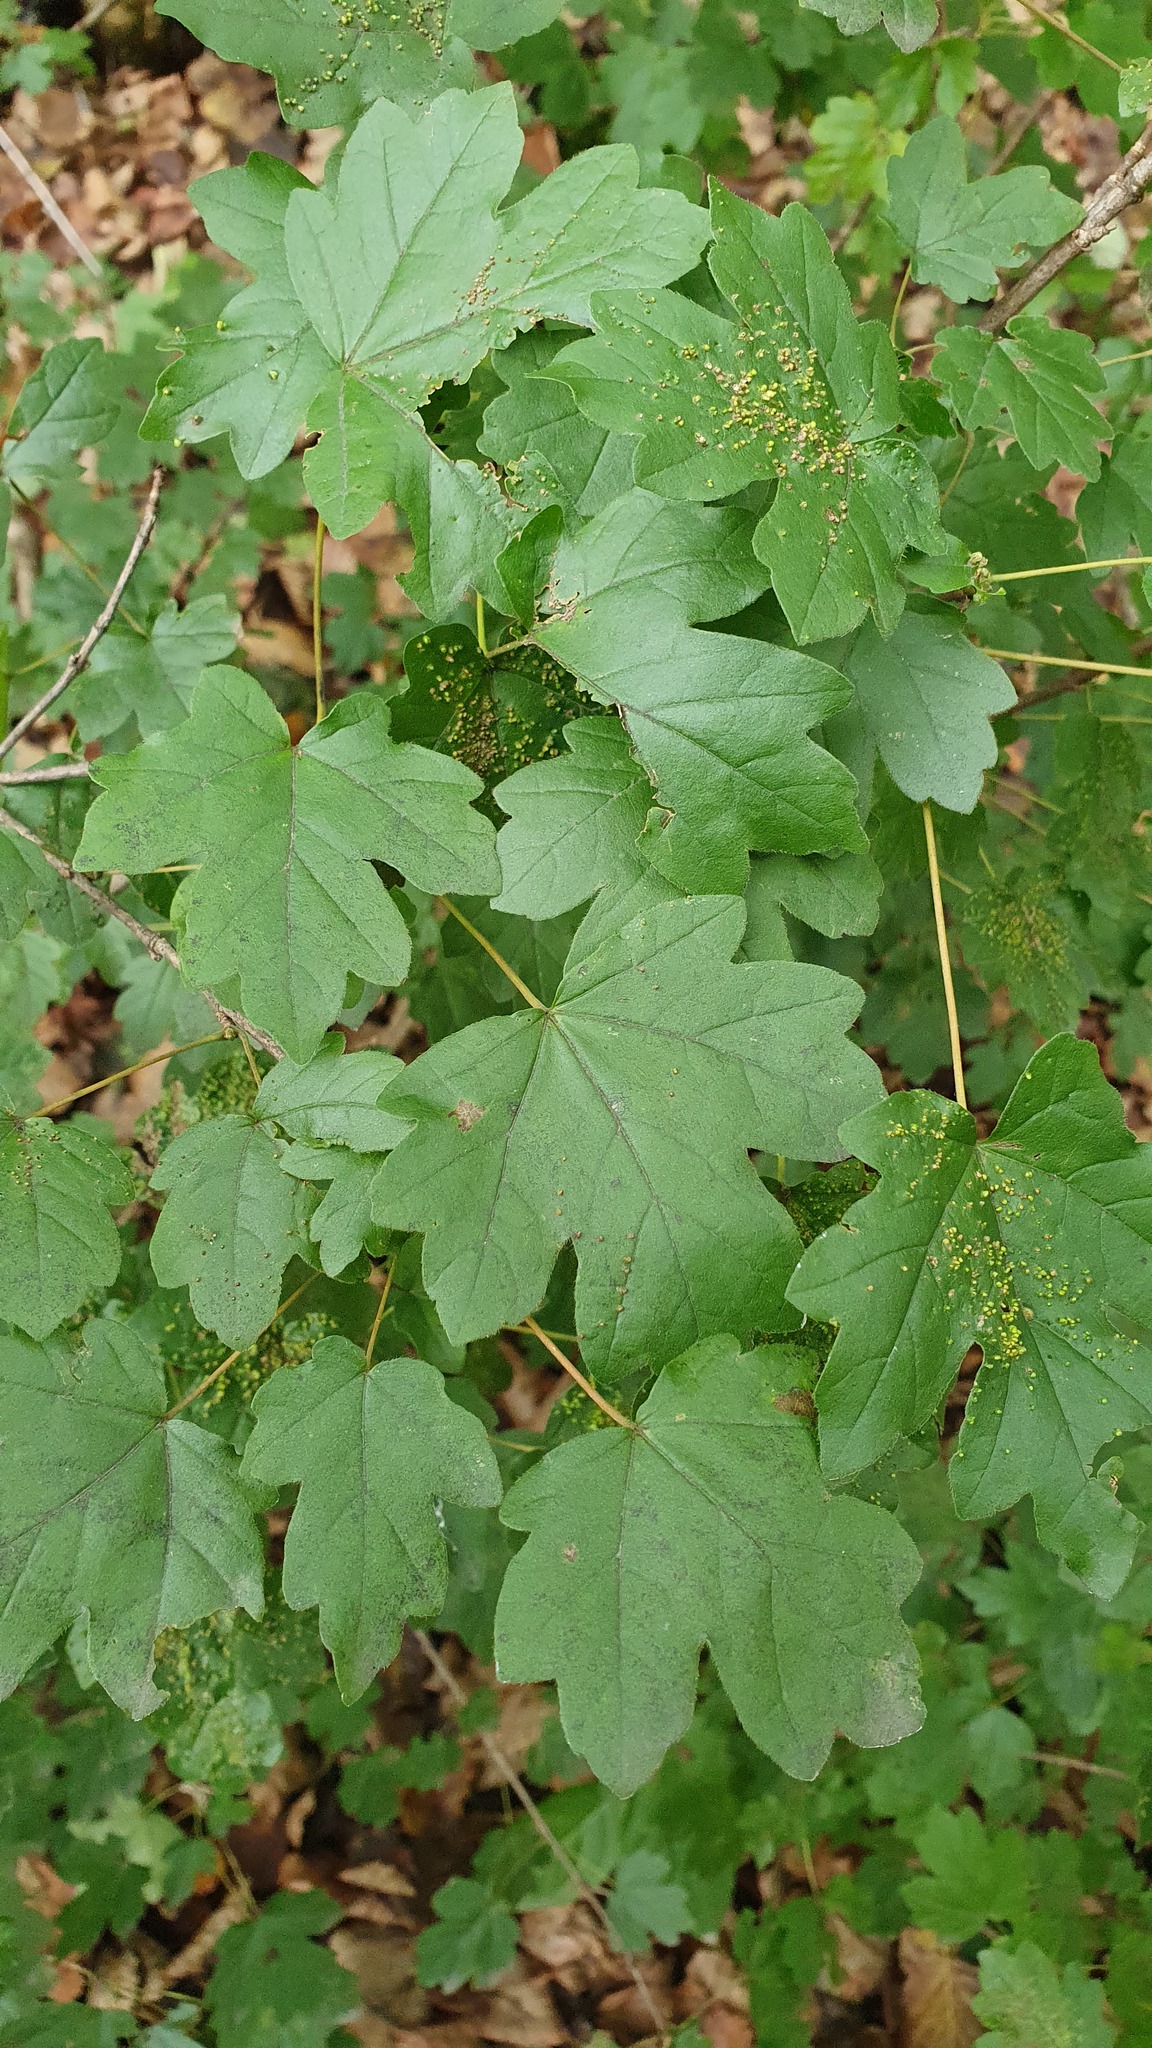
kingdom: Plantae
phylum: Tracheophyta
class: Magnoliopsida
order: Sapindales
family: Sapindaceae
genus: Acer
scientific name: Acer campestre
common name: Field maple
